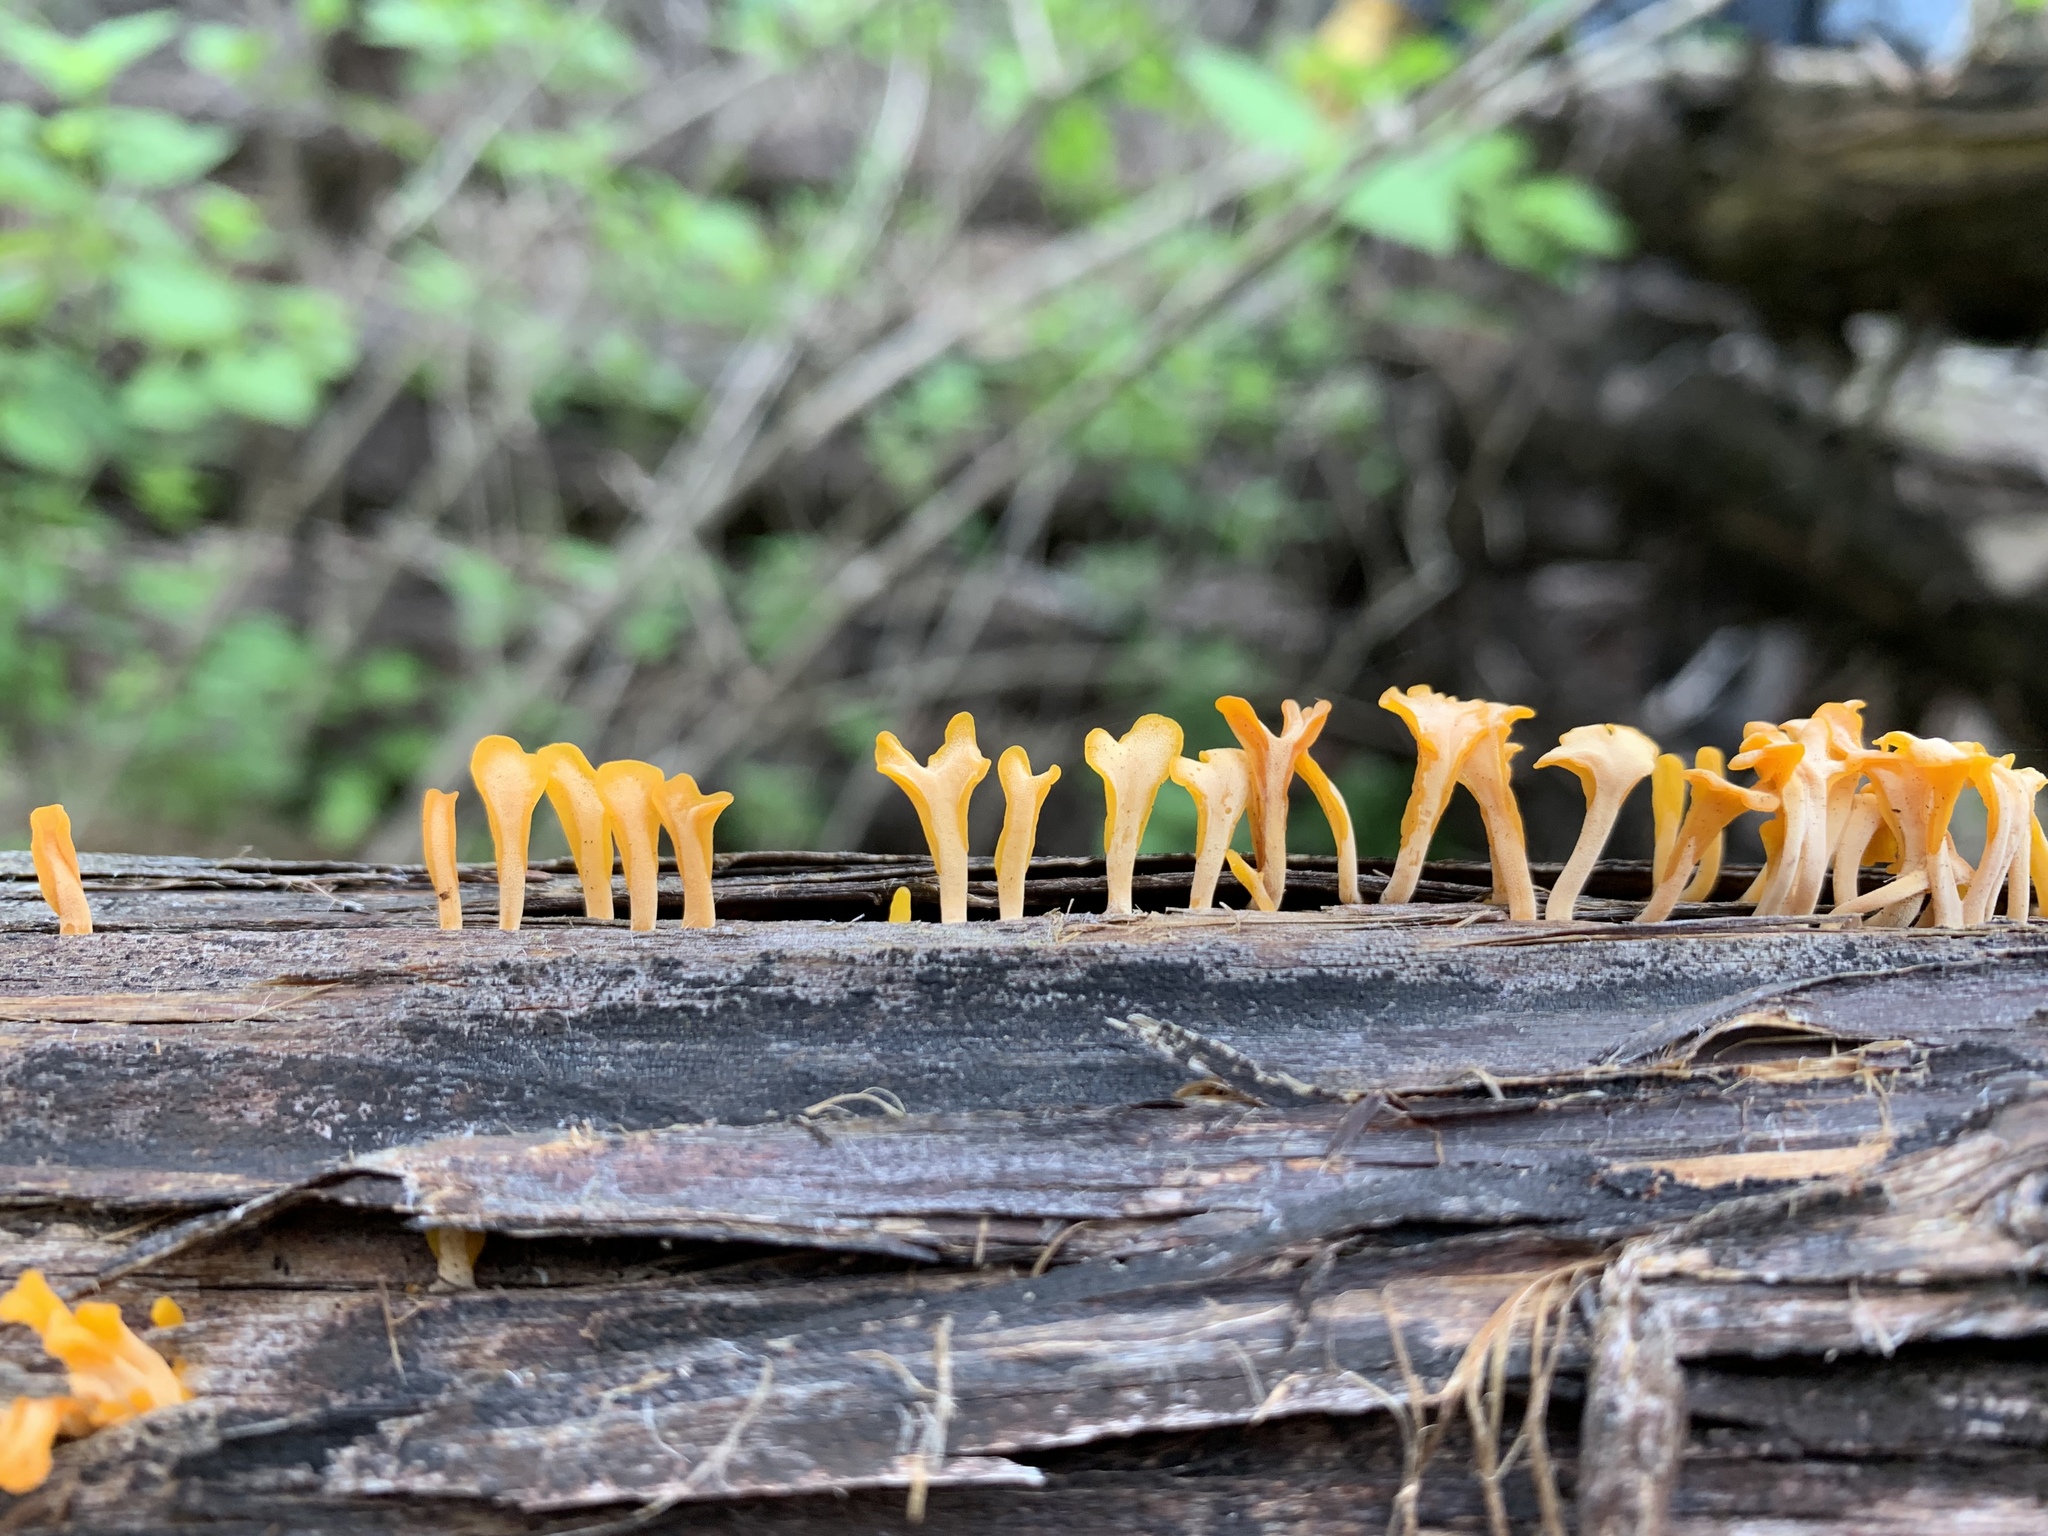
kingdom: Fungi
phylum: Basidiomycota
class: Dacrymycetes
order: Dacrymycetales
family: Dacrymycetaceae
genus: Dacrymyces
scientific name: Dacrymyces spathularius
